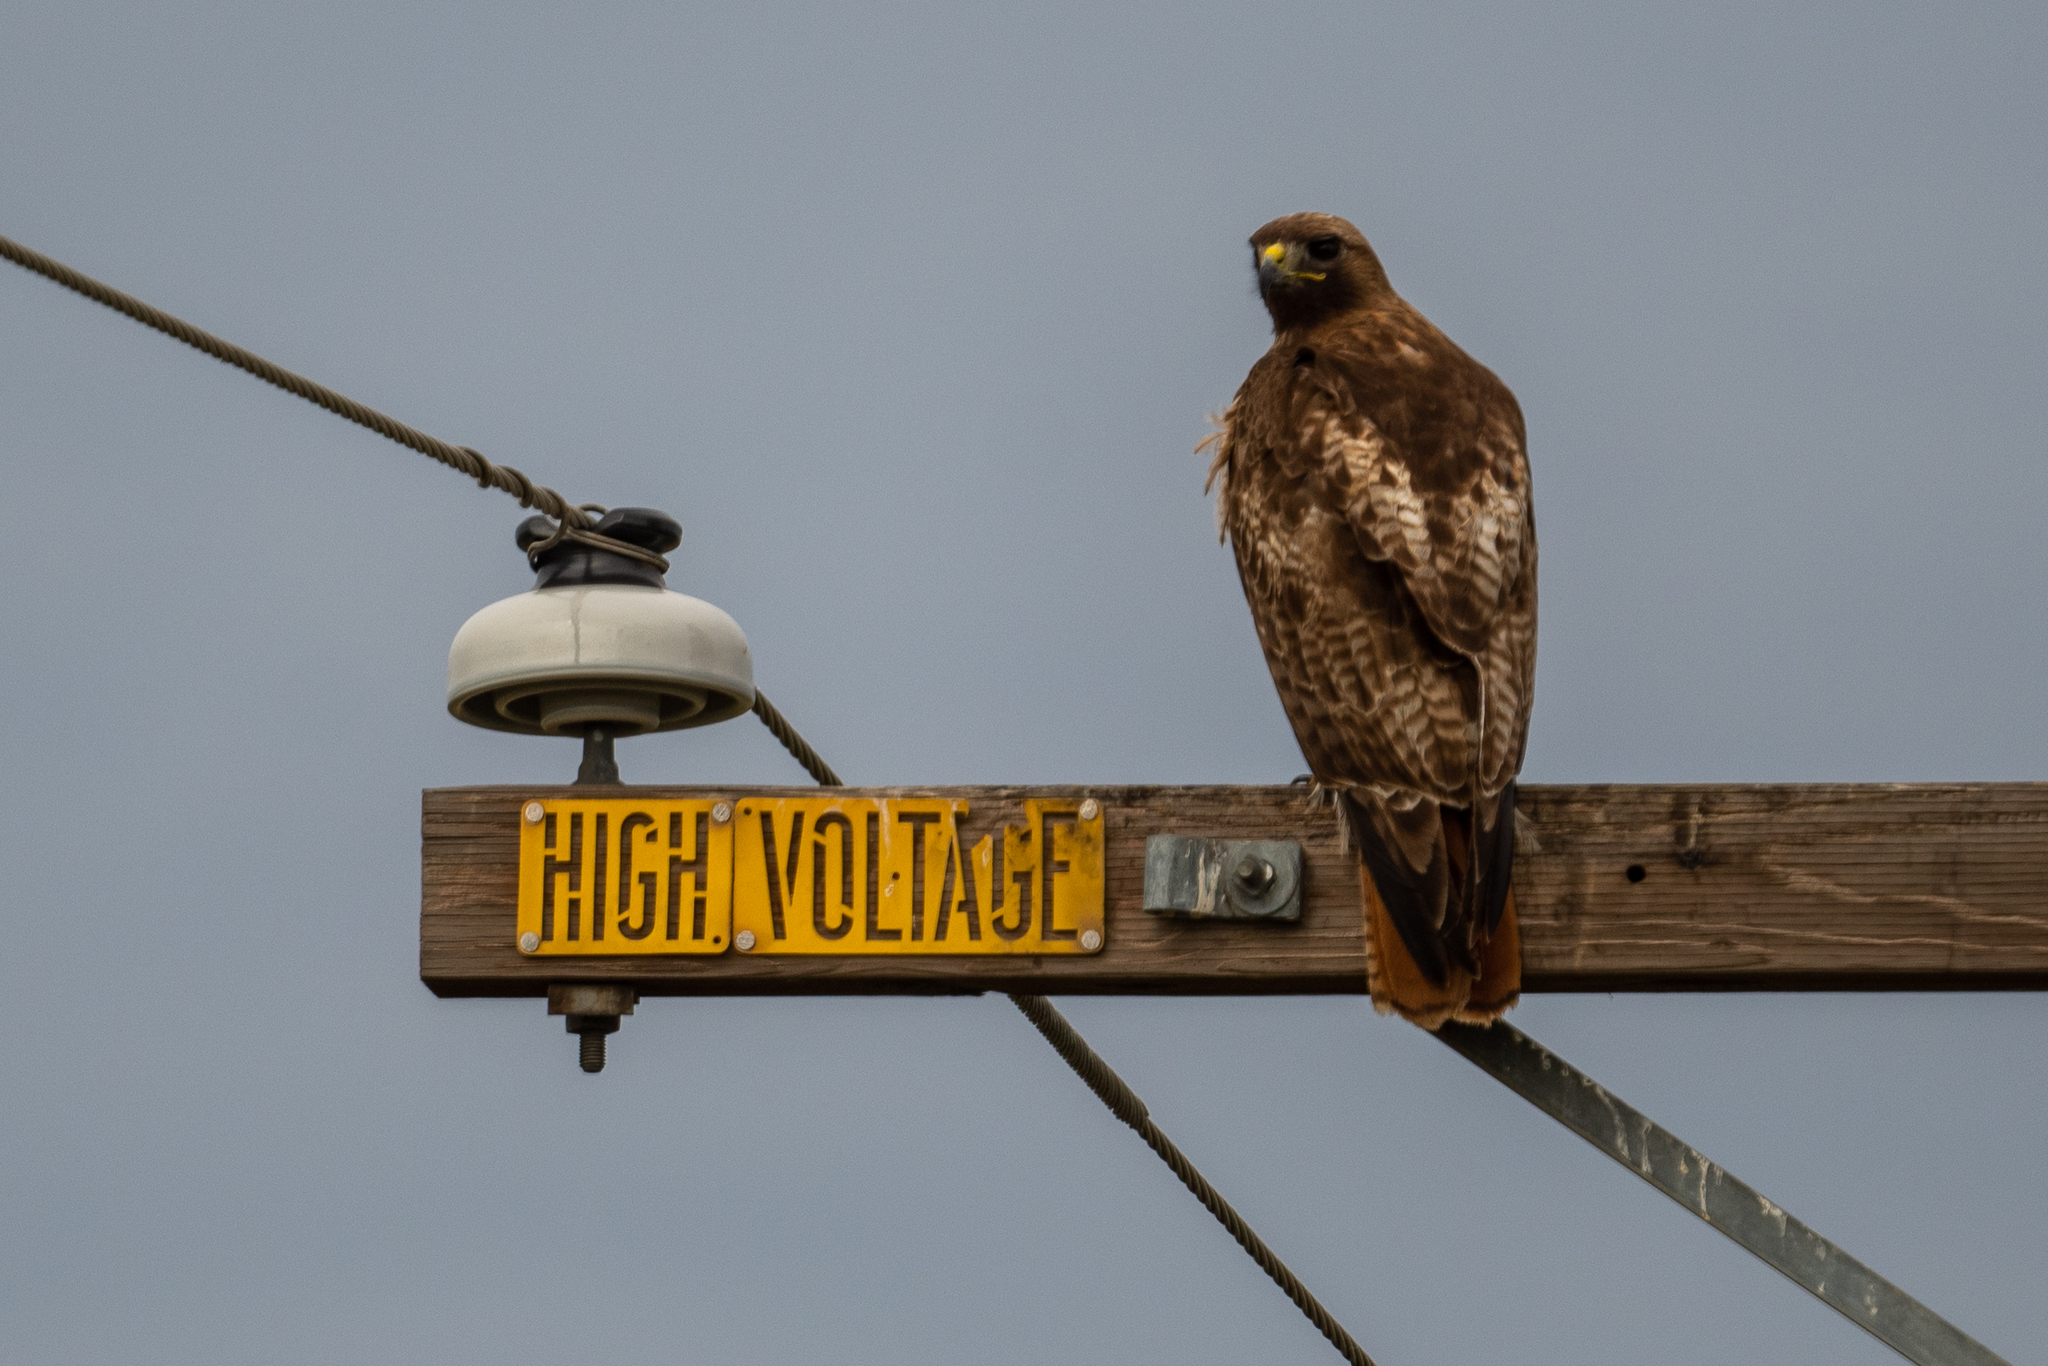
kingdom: Animalia
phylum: Chordata
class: Aves
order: Accipitriformes
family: Accipitridae
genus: Buteo
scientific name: Buteo jamaicensis
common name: Red-tailed hawk
